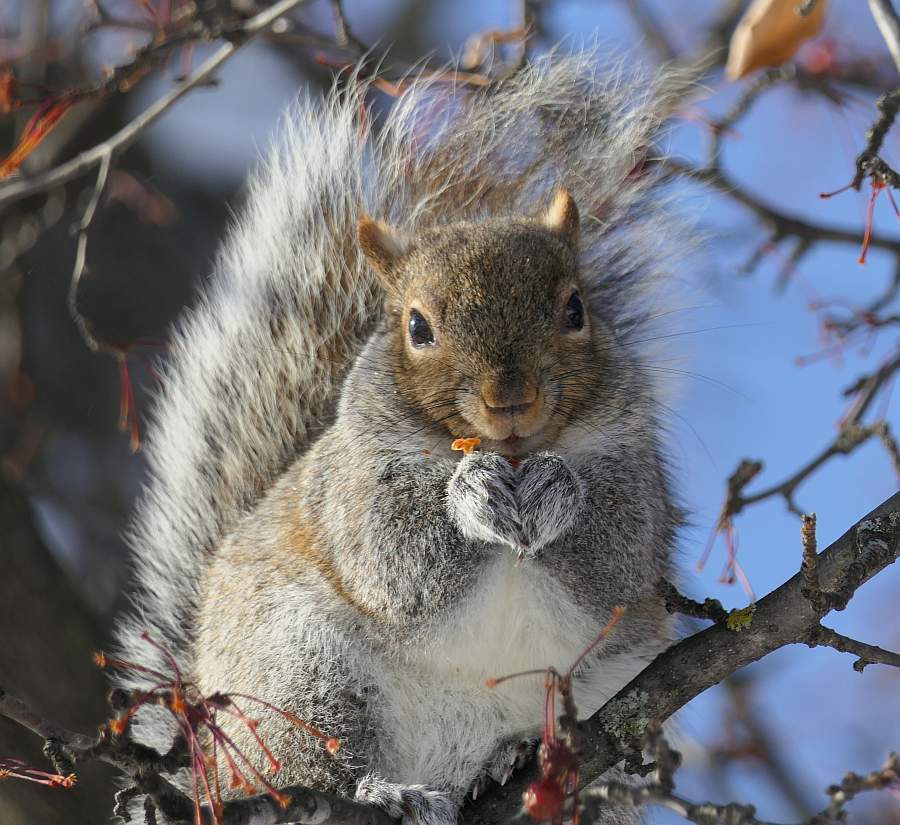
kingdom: Animalia
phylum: Chordata
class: Mammalia
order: Rodentia
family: Sciuridae
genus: Sciurus
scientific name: Sciurus carolinensis
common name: Eastern gray squirrel
